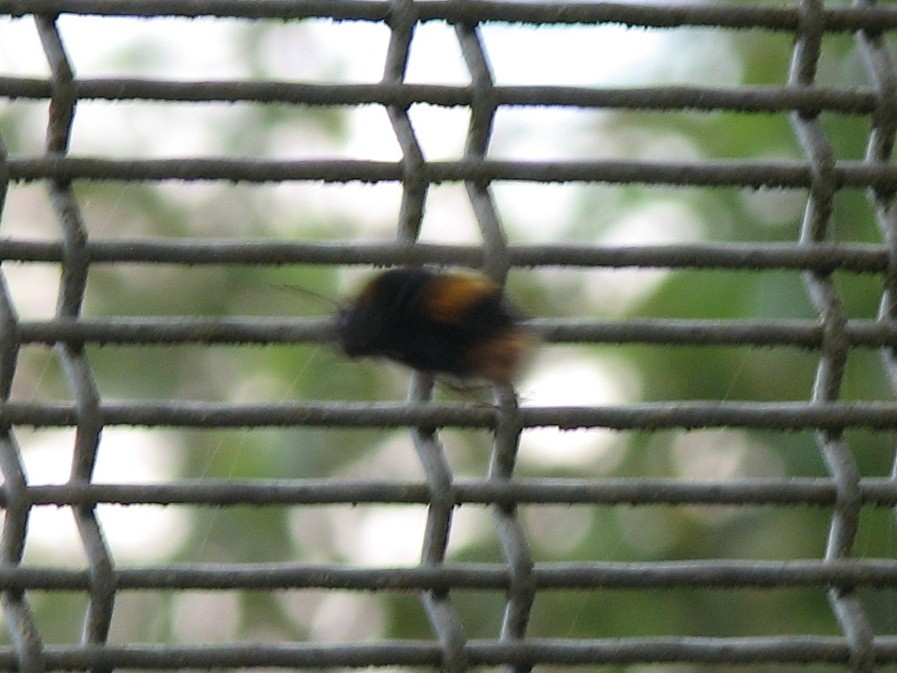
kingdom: Animalia
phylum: Arthropoda
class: Insecta
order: Hymenoptera
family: Apidae
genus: Bombus
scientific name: Bombus terrestris
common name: Buff-tailed bumblebee
